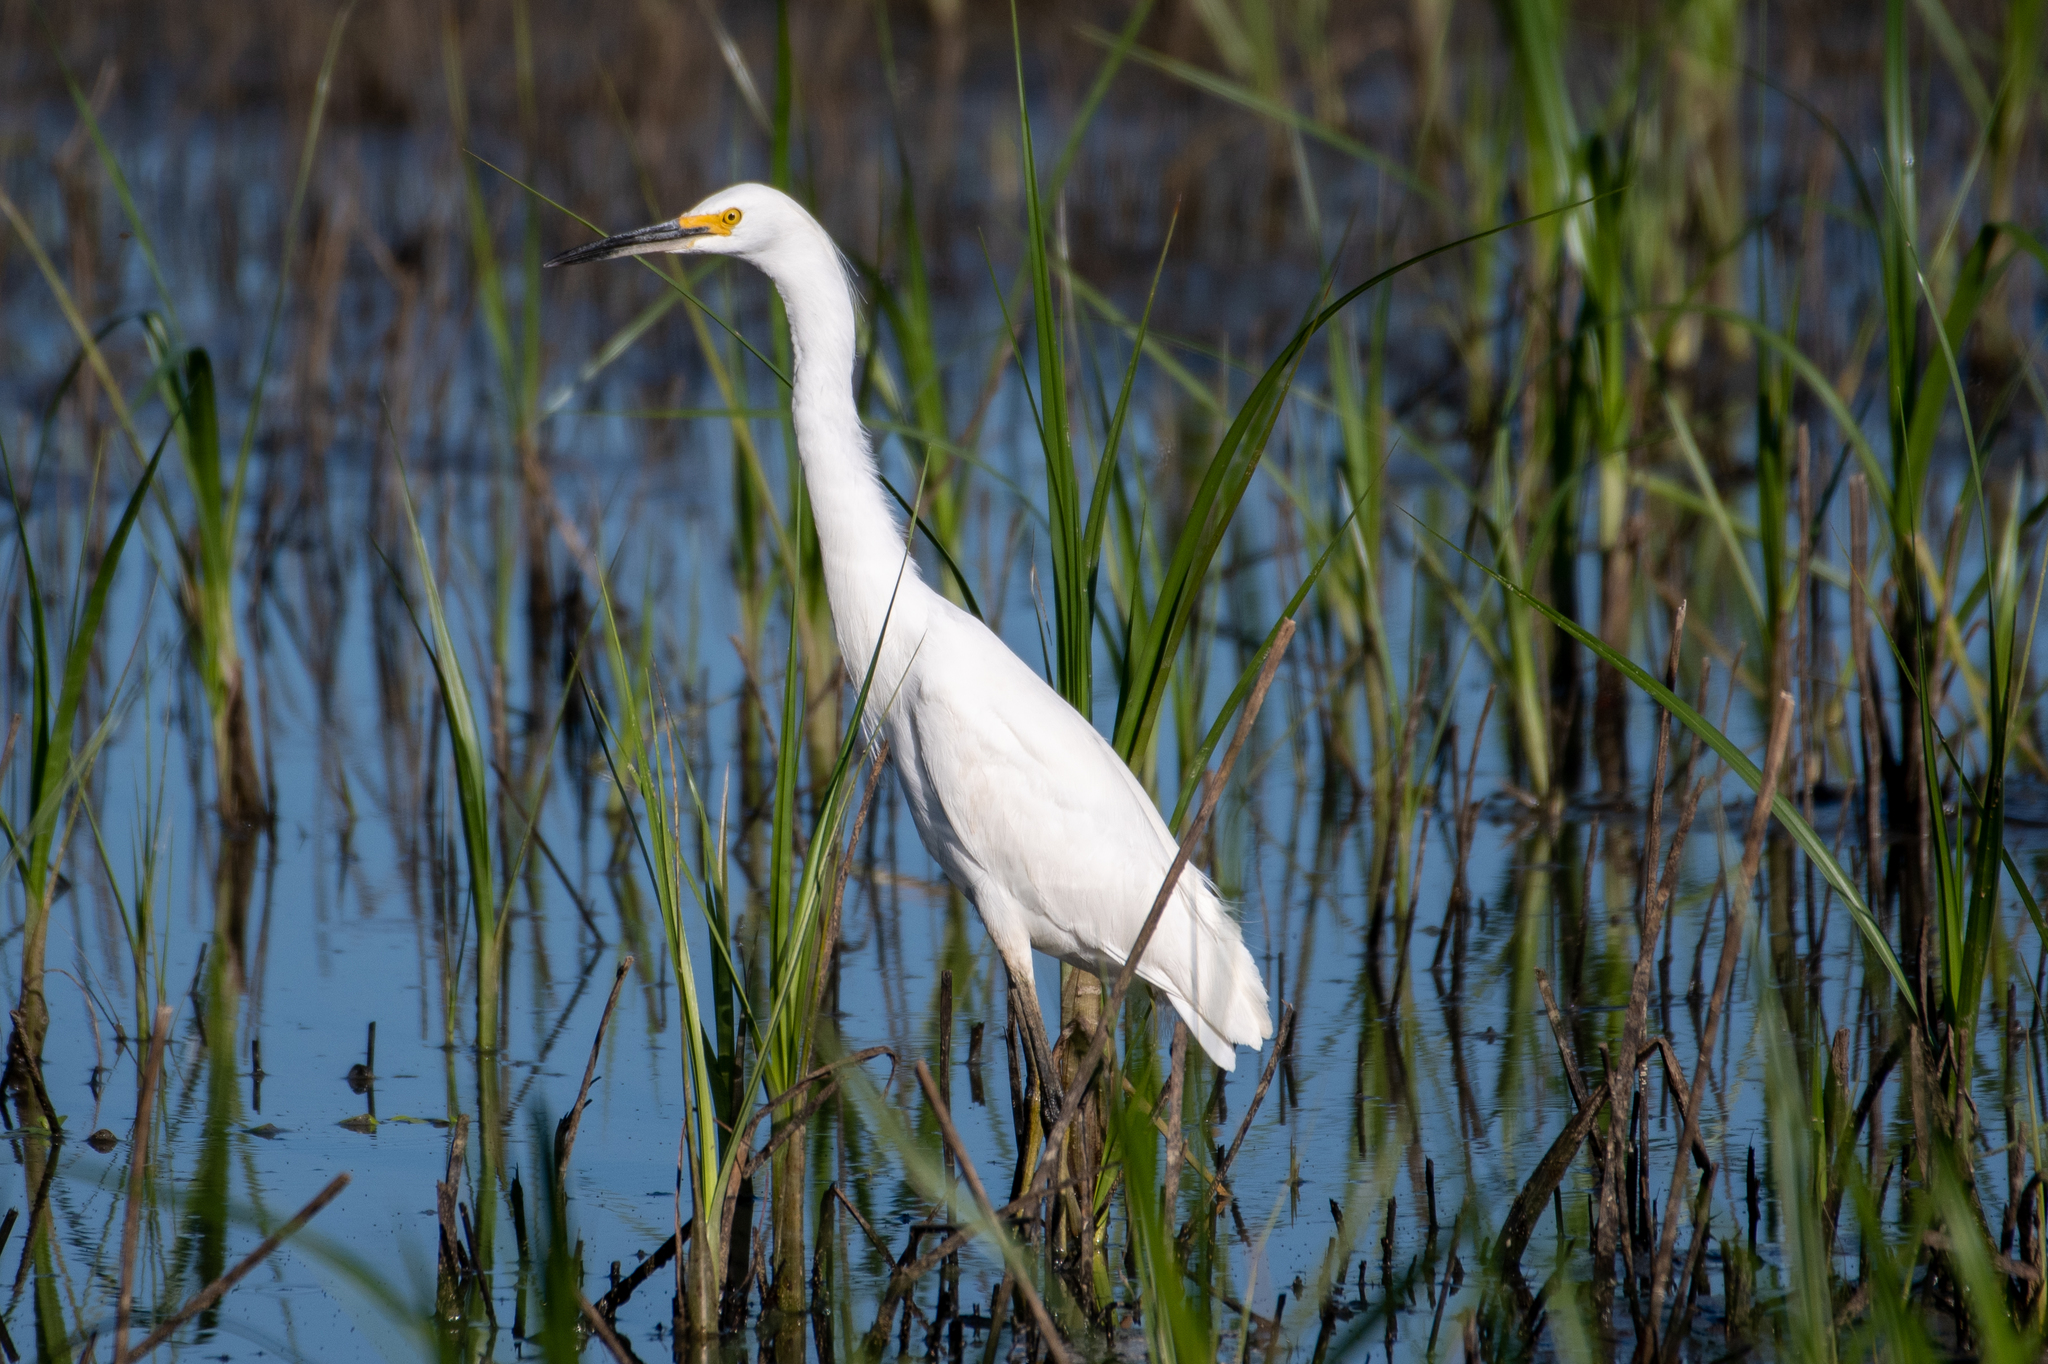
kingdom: Animalia
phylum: Chordata
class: Aves
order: Pelecaniformes
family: Ardeidae
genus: Egretta
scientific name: Egretta thula
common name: Snowy egret
